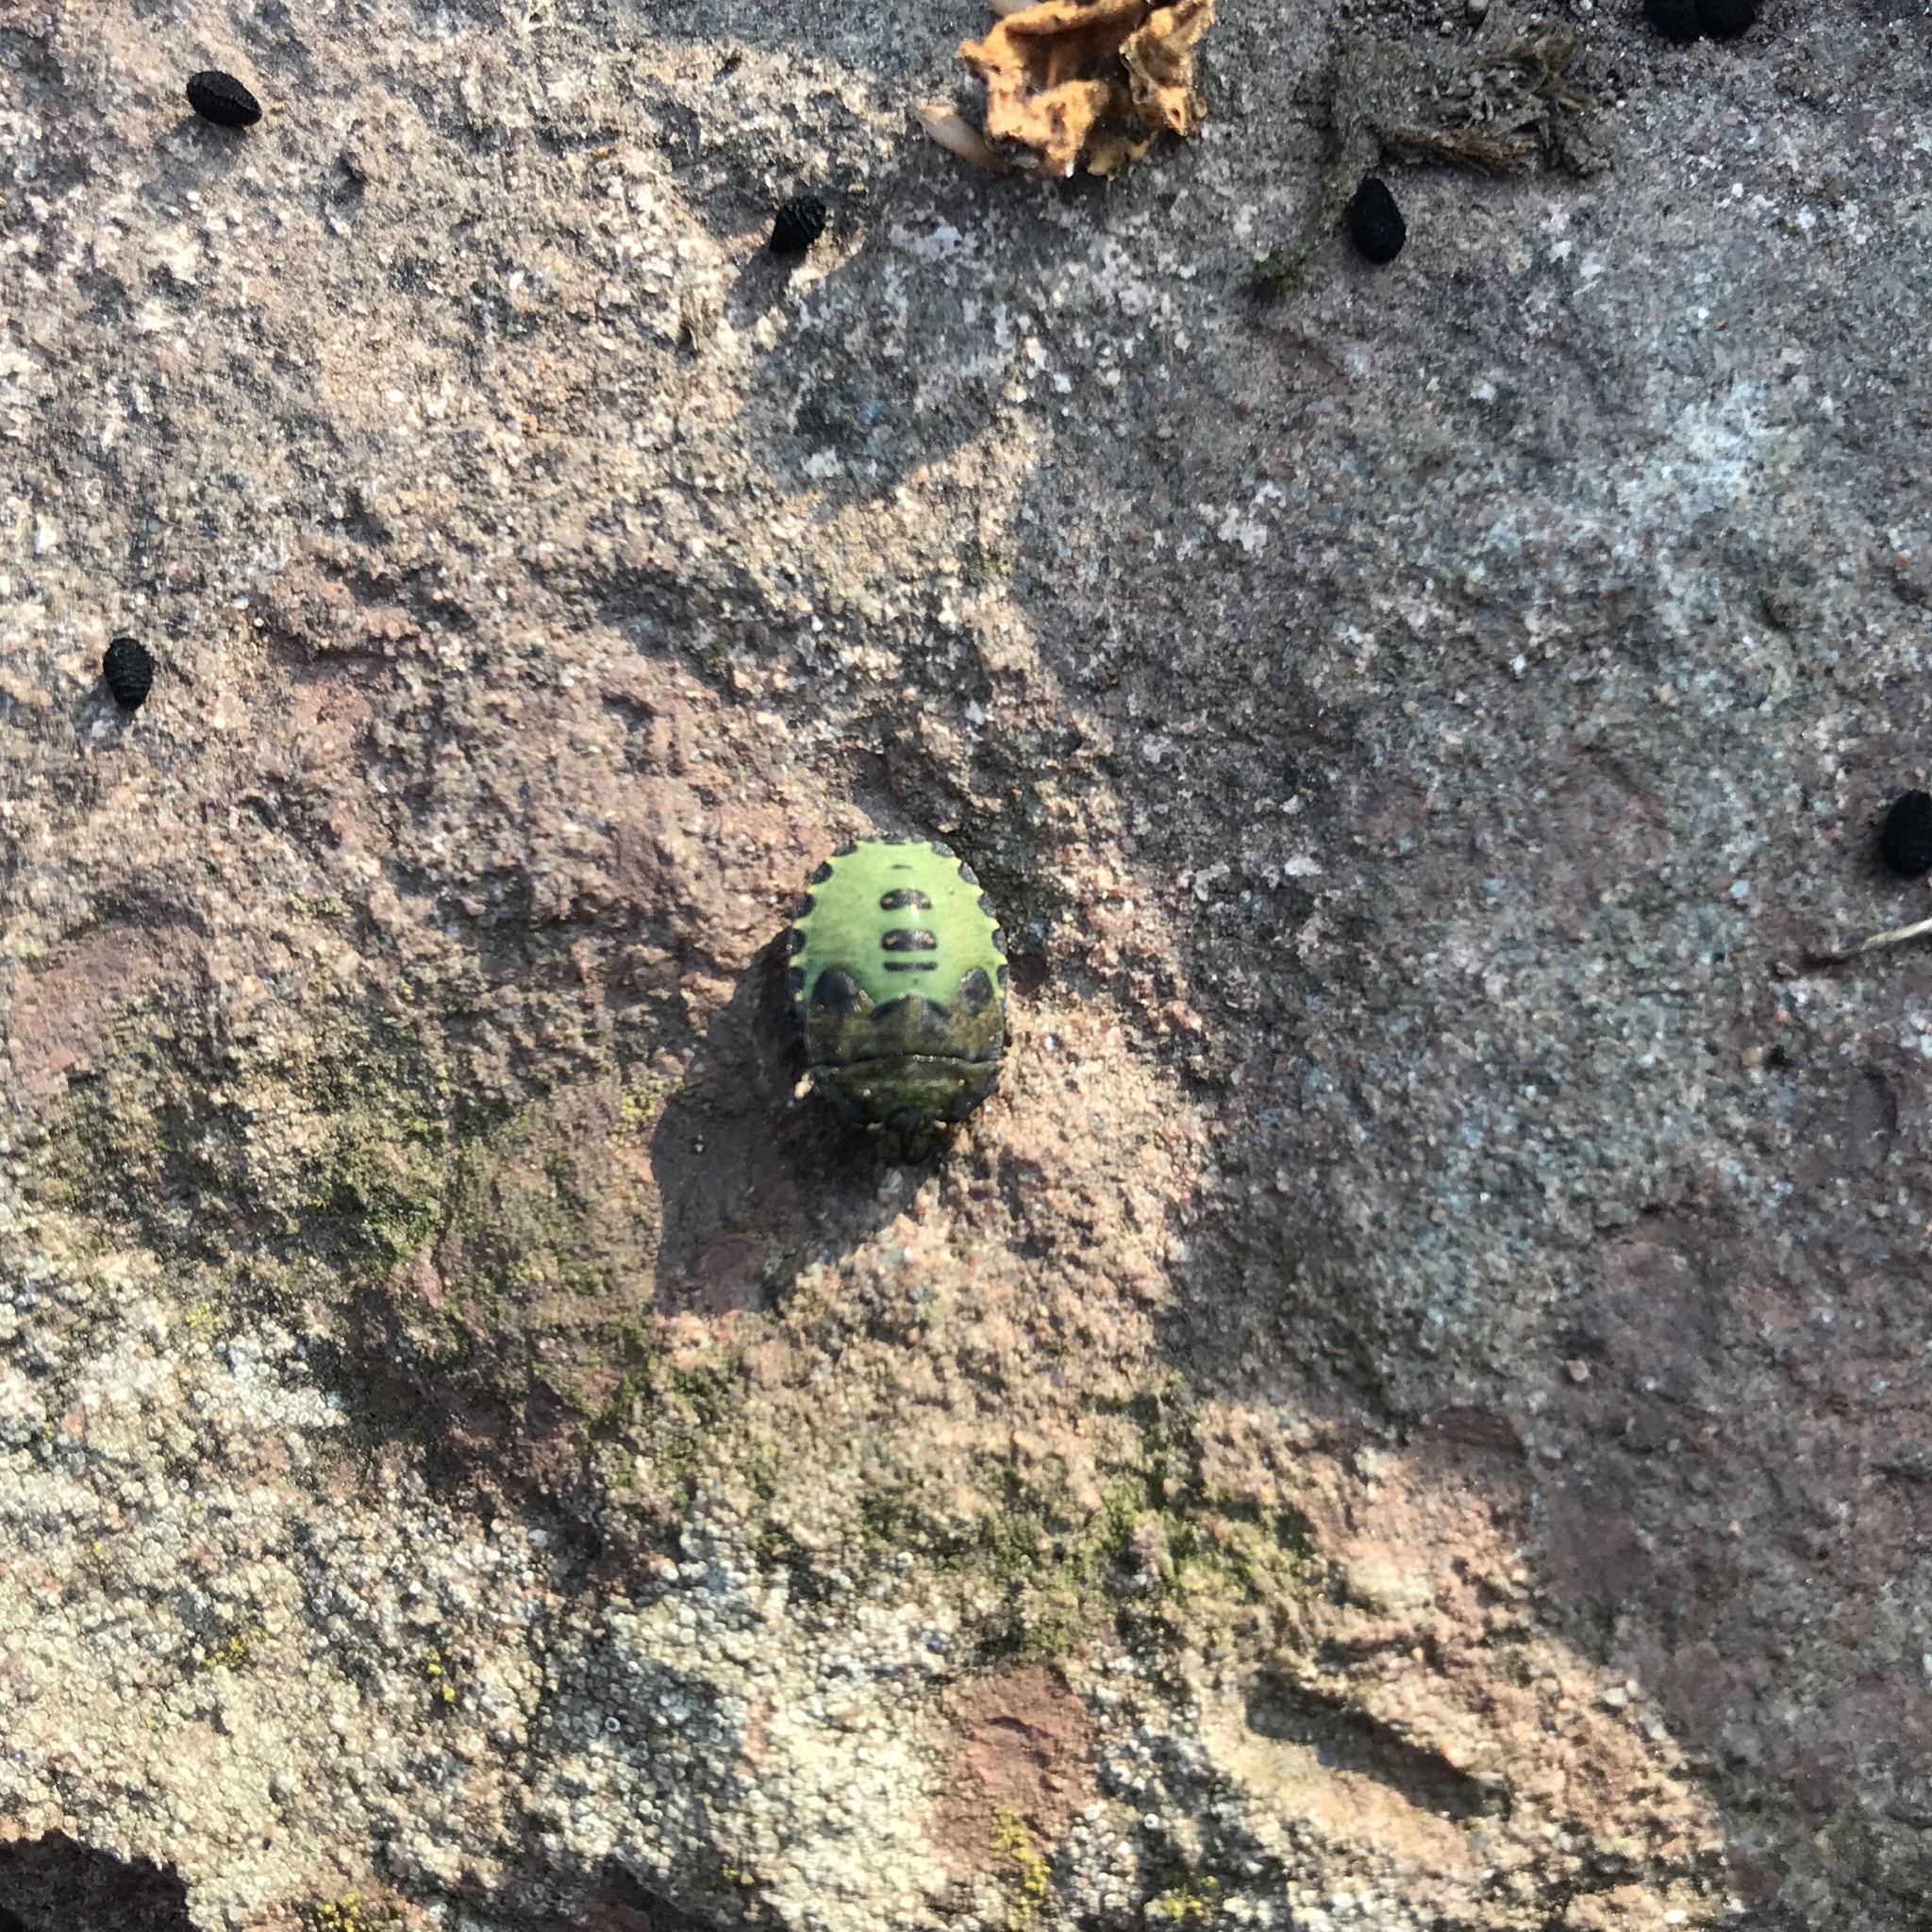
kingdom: Animalia
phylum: Arthropoda
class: Insecta
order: Hemiptera
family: Pentatomidae
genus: Palomena
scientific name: Palomena prasina
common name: Green shieldbug
